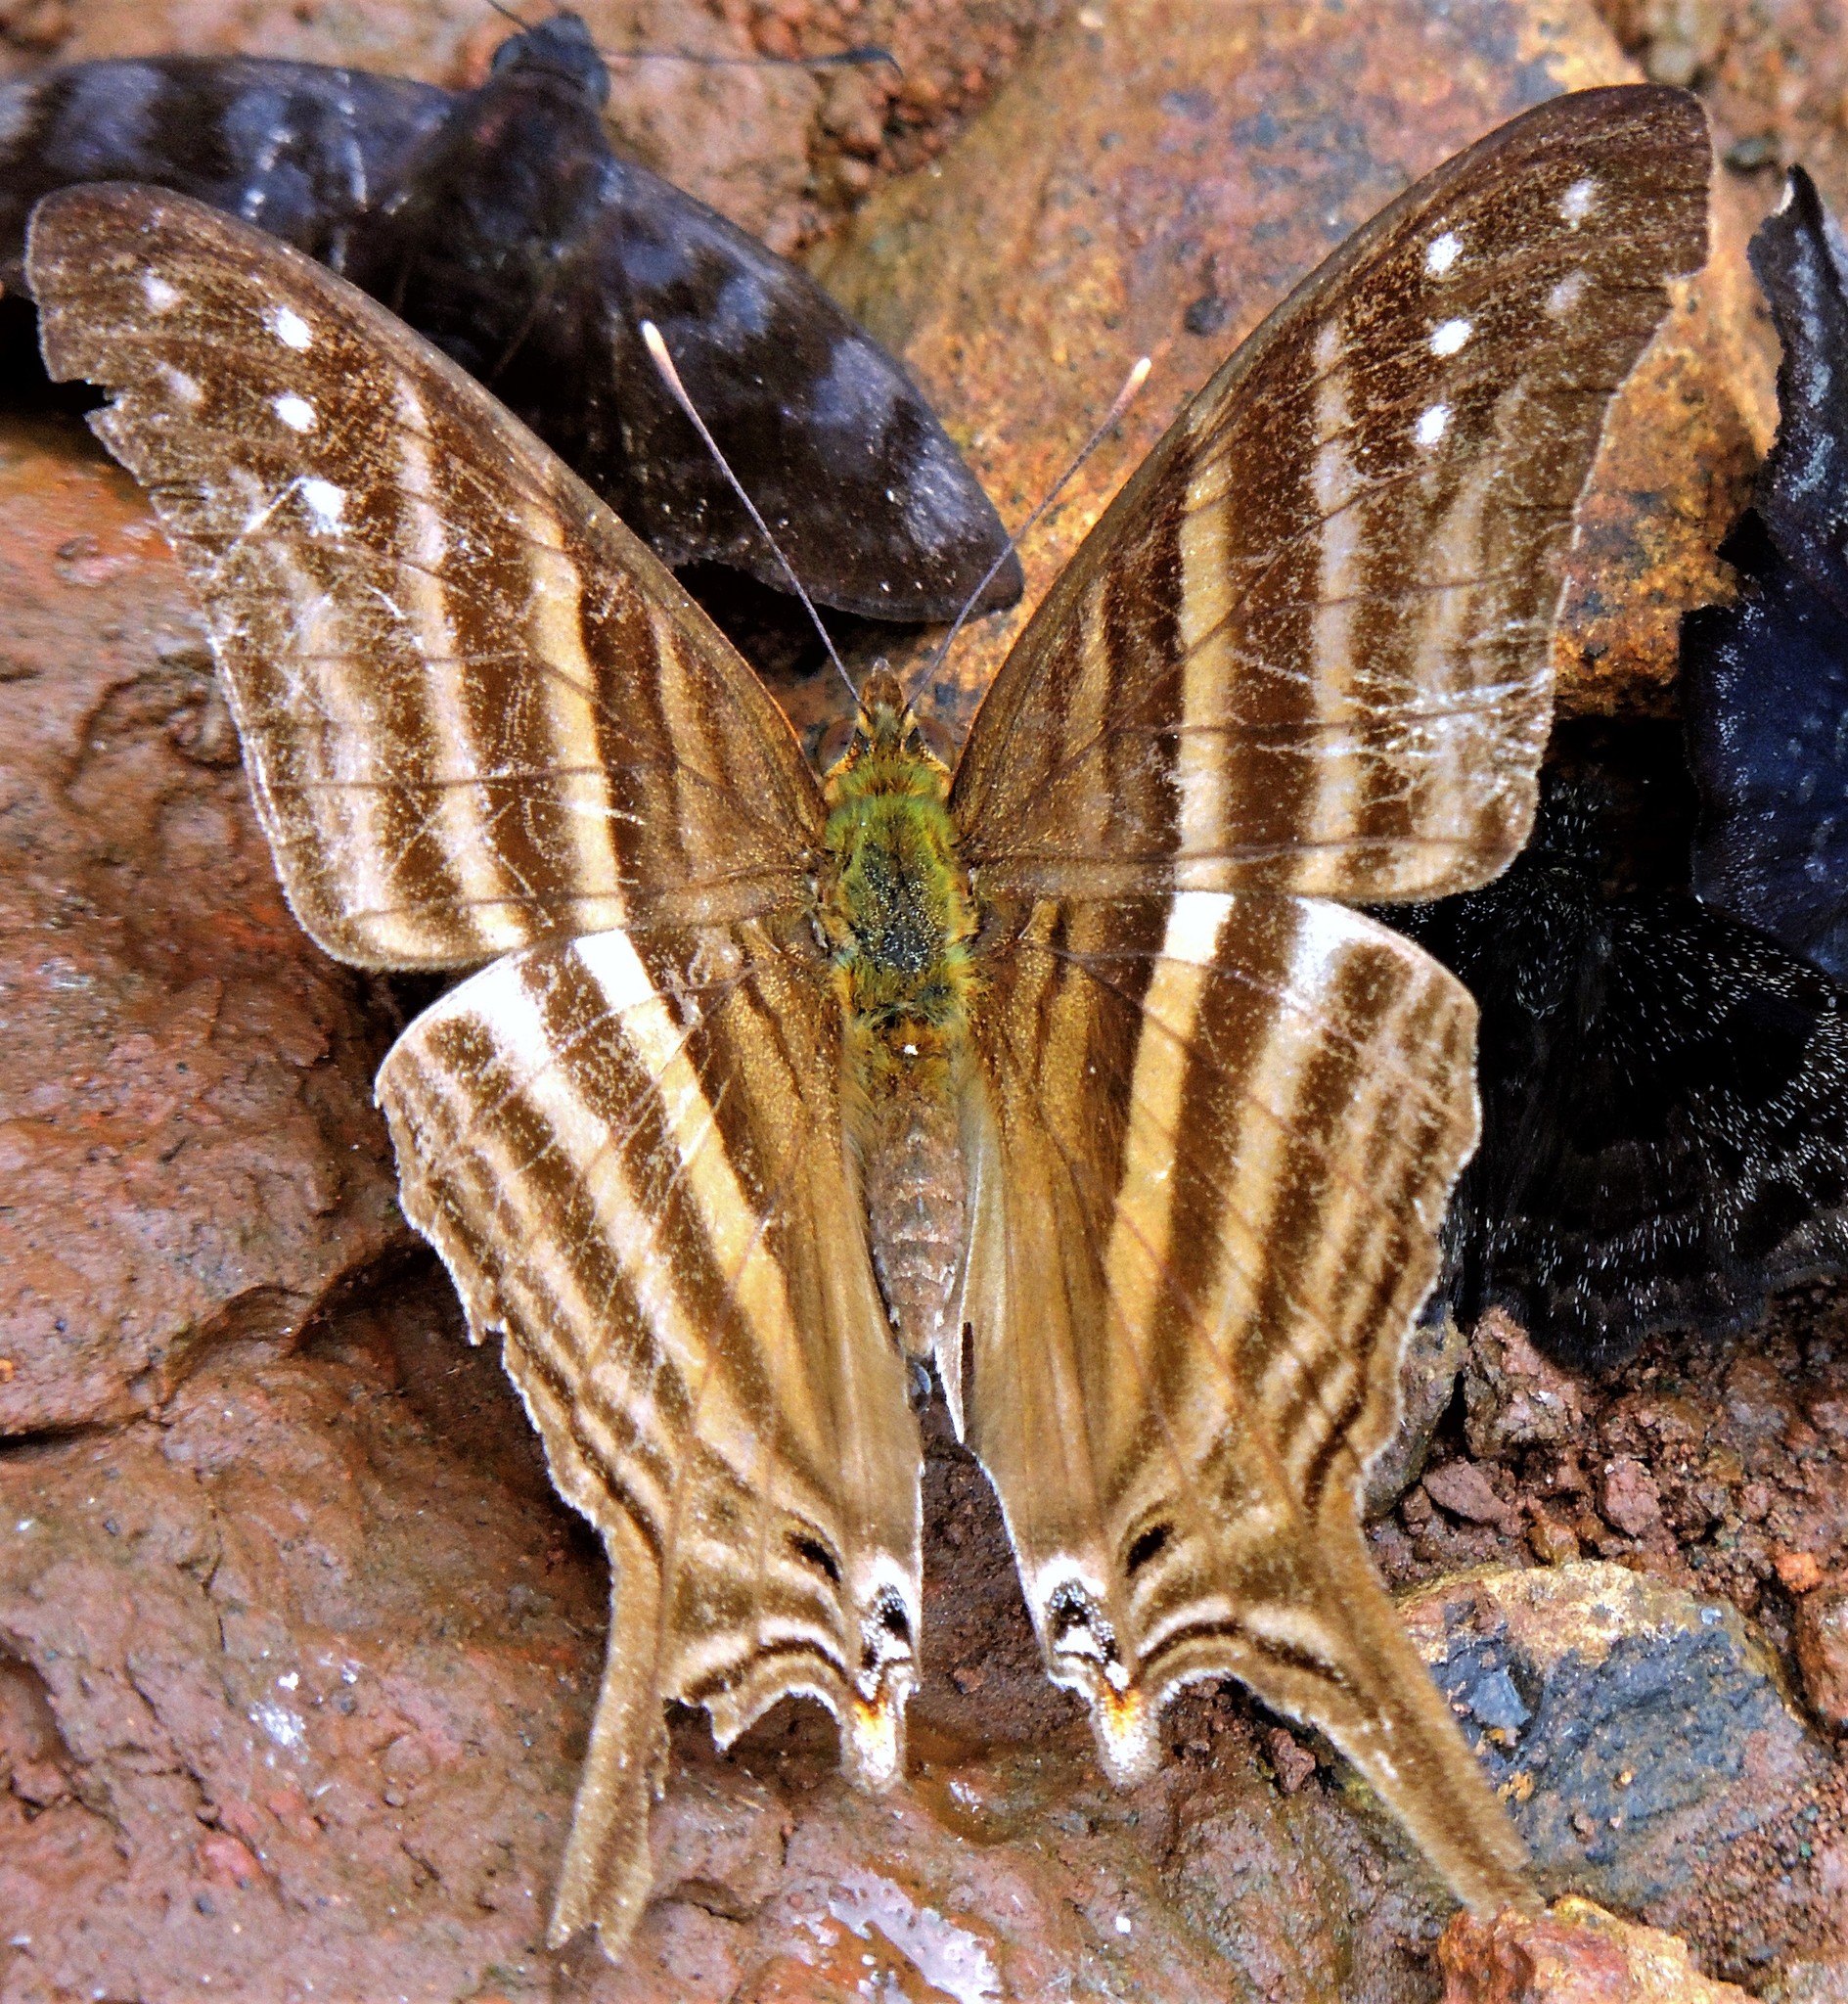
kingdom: Animalia
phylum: Arthropoda
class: Insecta
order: Lepidoptera
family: Nymphalidae
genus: Marpesia
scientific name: Marpesia chiron
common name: Many-banded daggerwing
